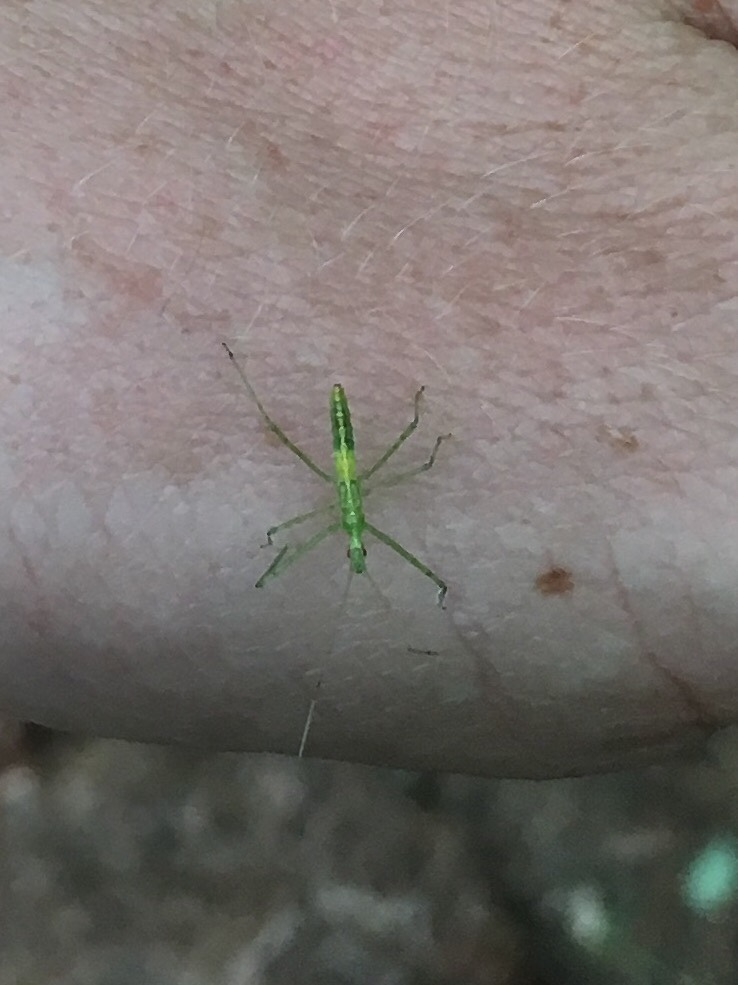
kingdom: Animalia
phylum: Arthropoda
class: Insecta
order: Hemiptera
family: Reduviidae
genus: Zelus
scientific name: Zelus luridus
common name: Pale green assassin bug
